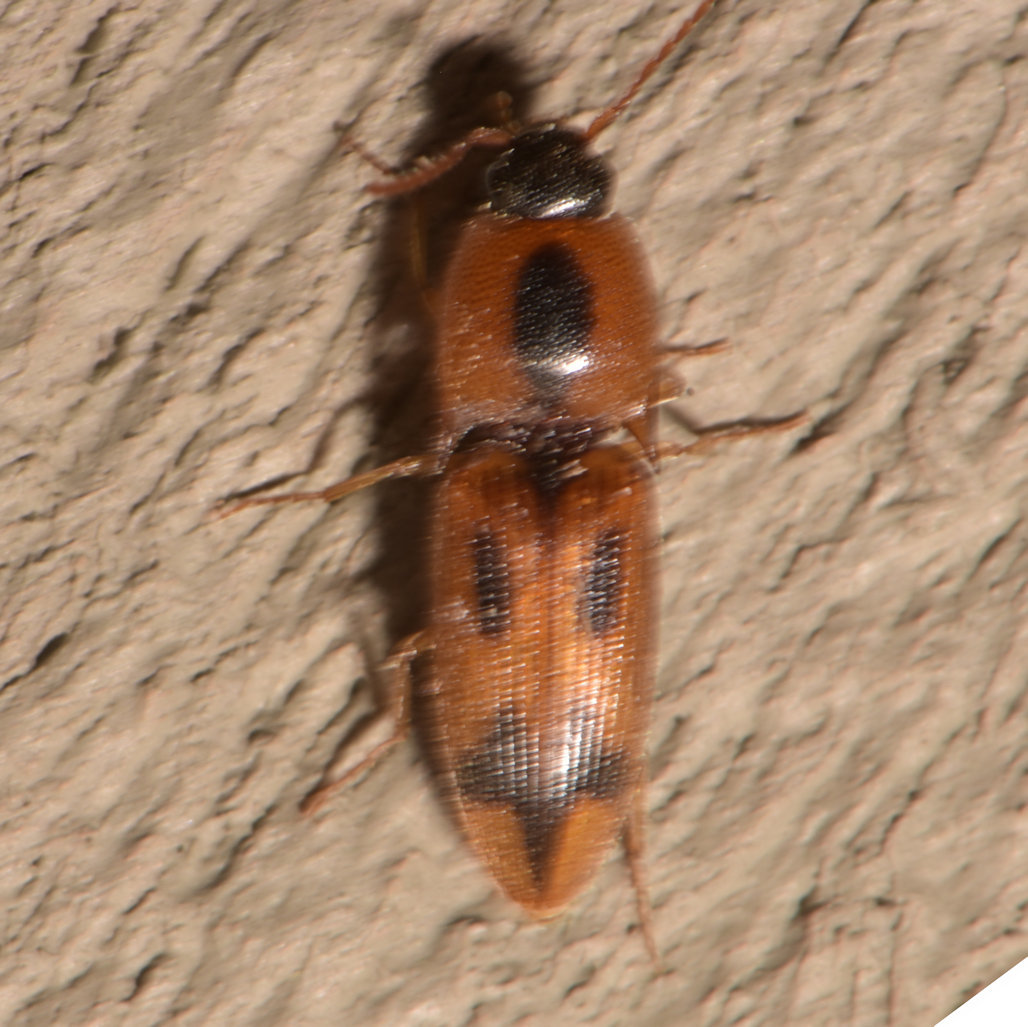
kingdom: Animalia
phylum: Arthropoda
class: Insecta
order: Coleoptera
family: Elateridae
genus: Aeolus
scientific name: Aeolus mellillus
